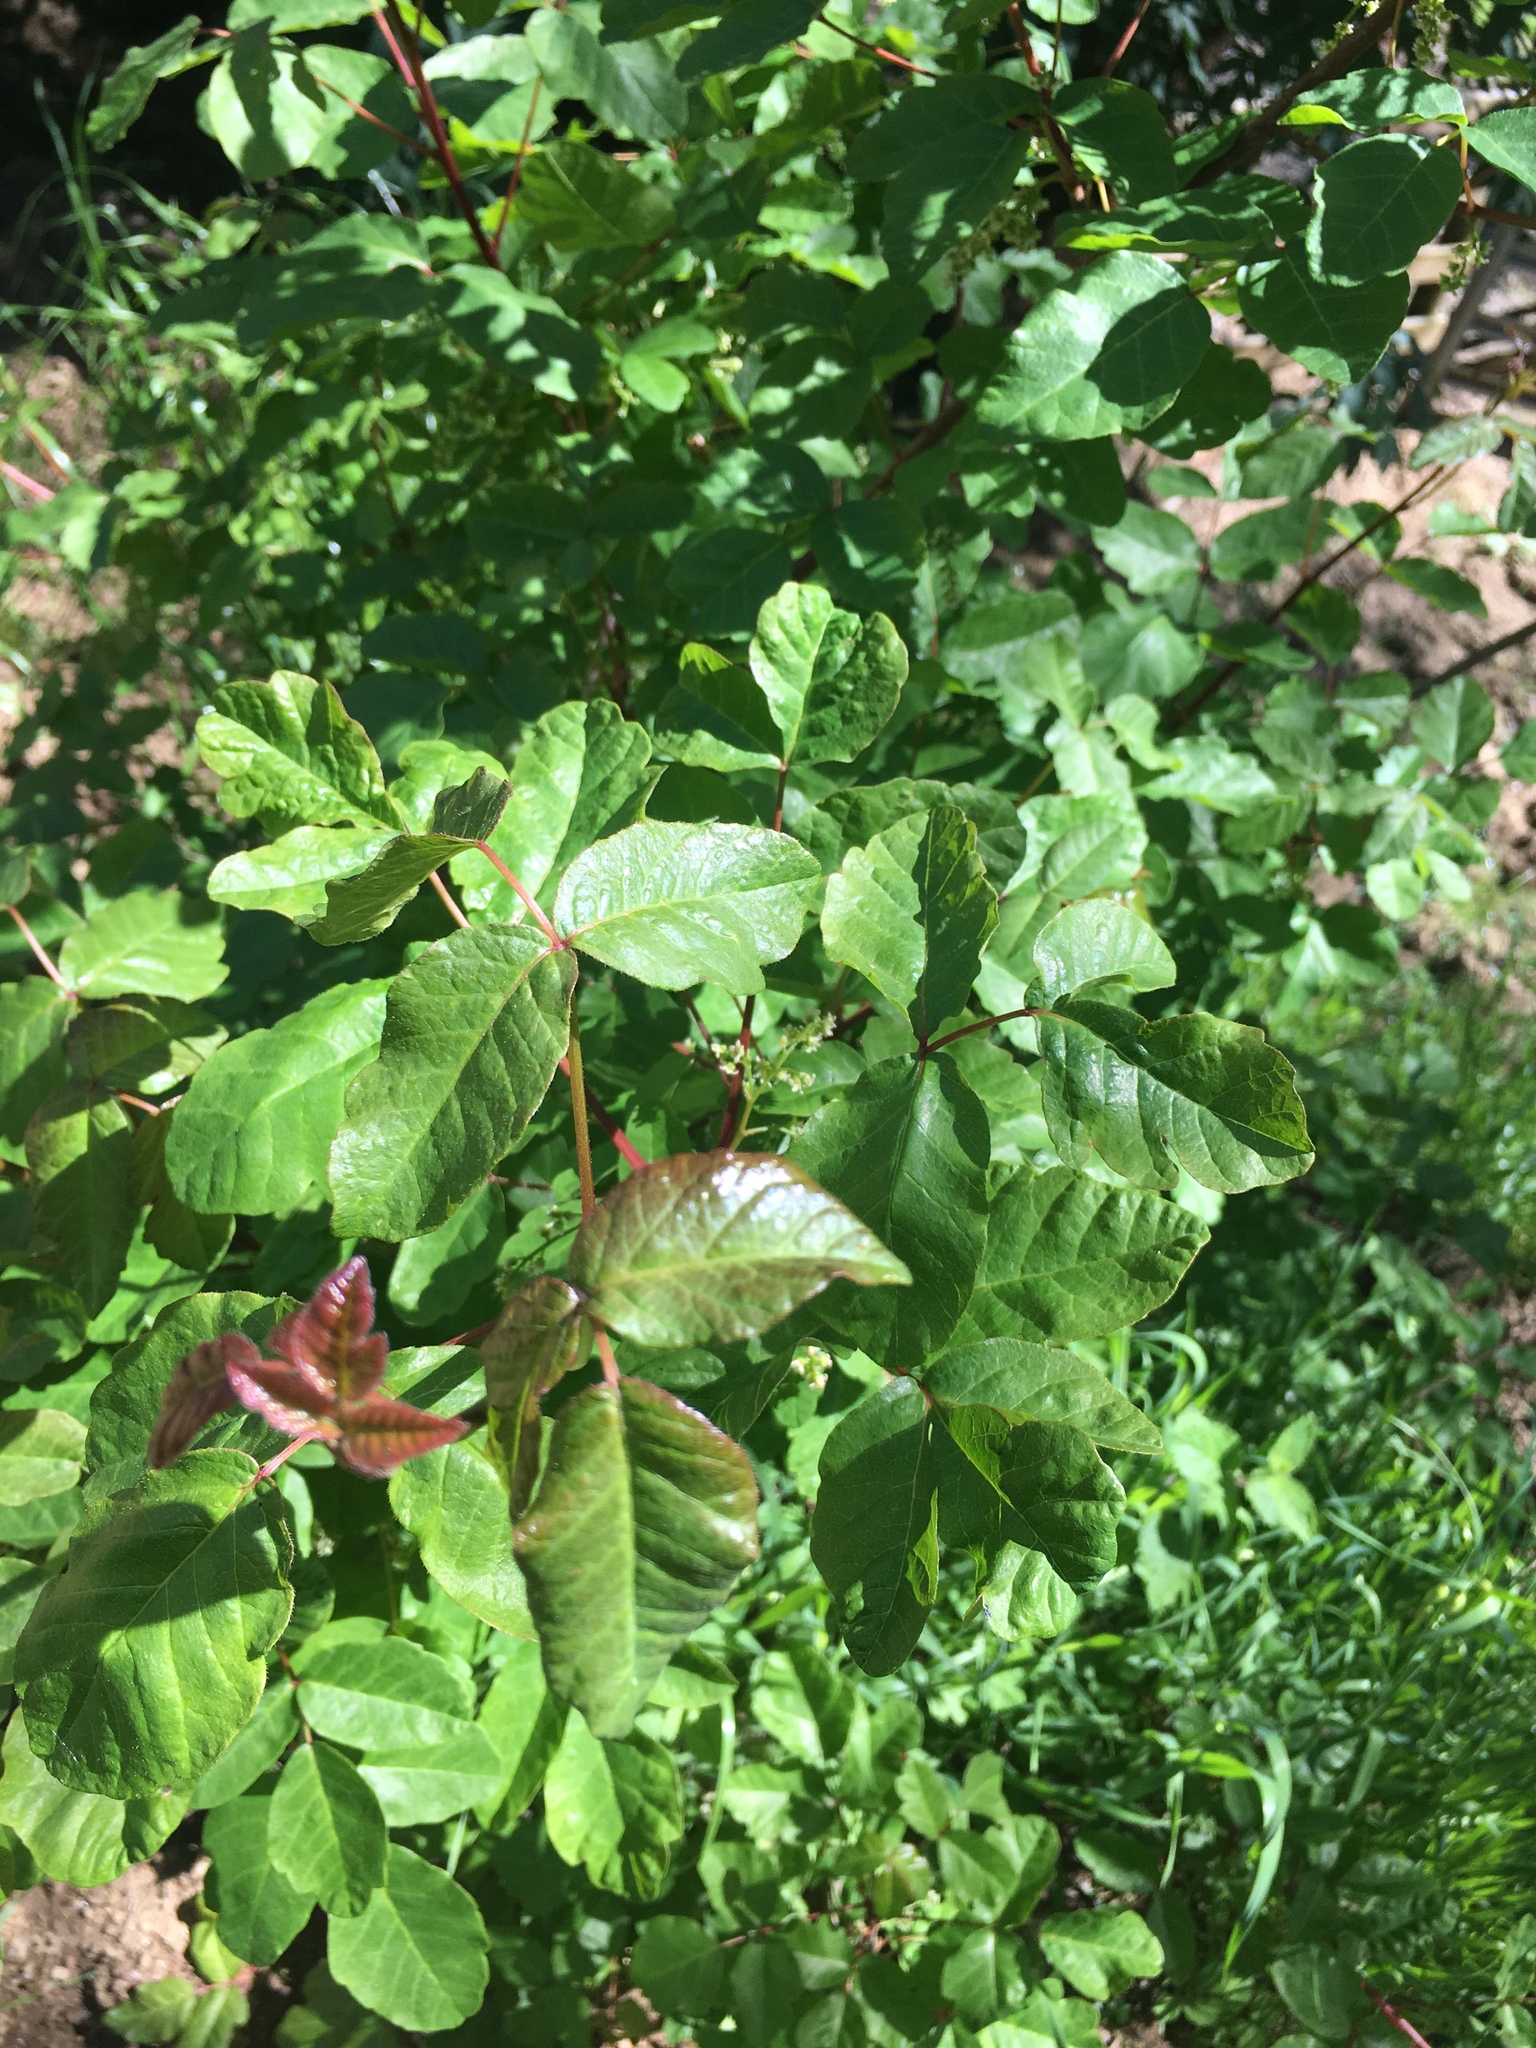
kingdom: Plantae
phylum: Tracheophyta
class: Magnoliopsida
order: Sapindales
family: Anacardiaceae
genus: Toxicodendron
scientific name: Toxicodendron diversilobum
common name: Pacific poison-oak
